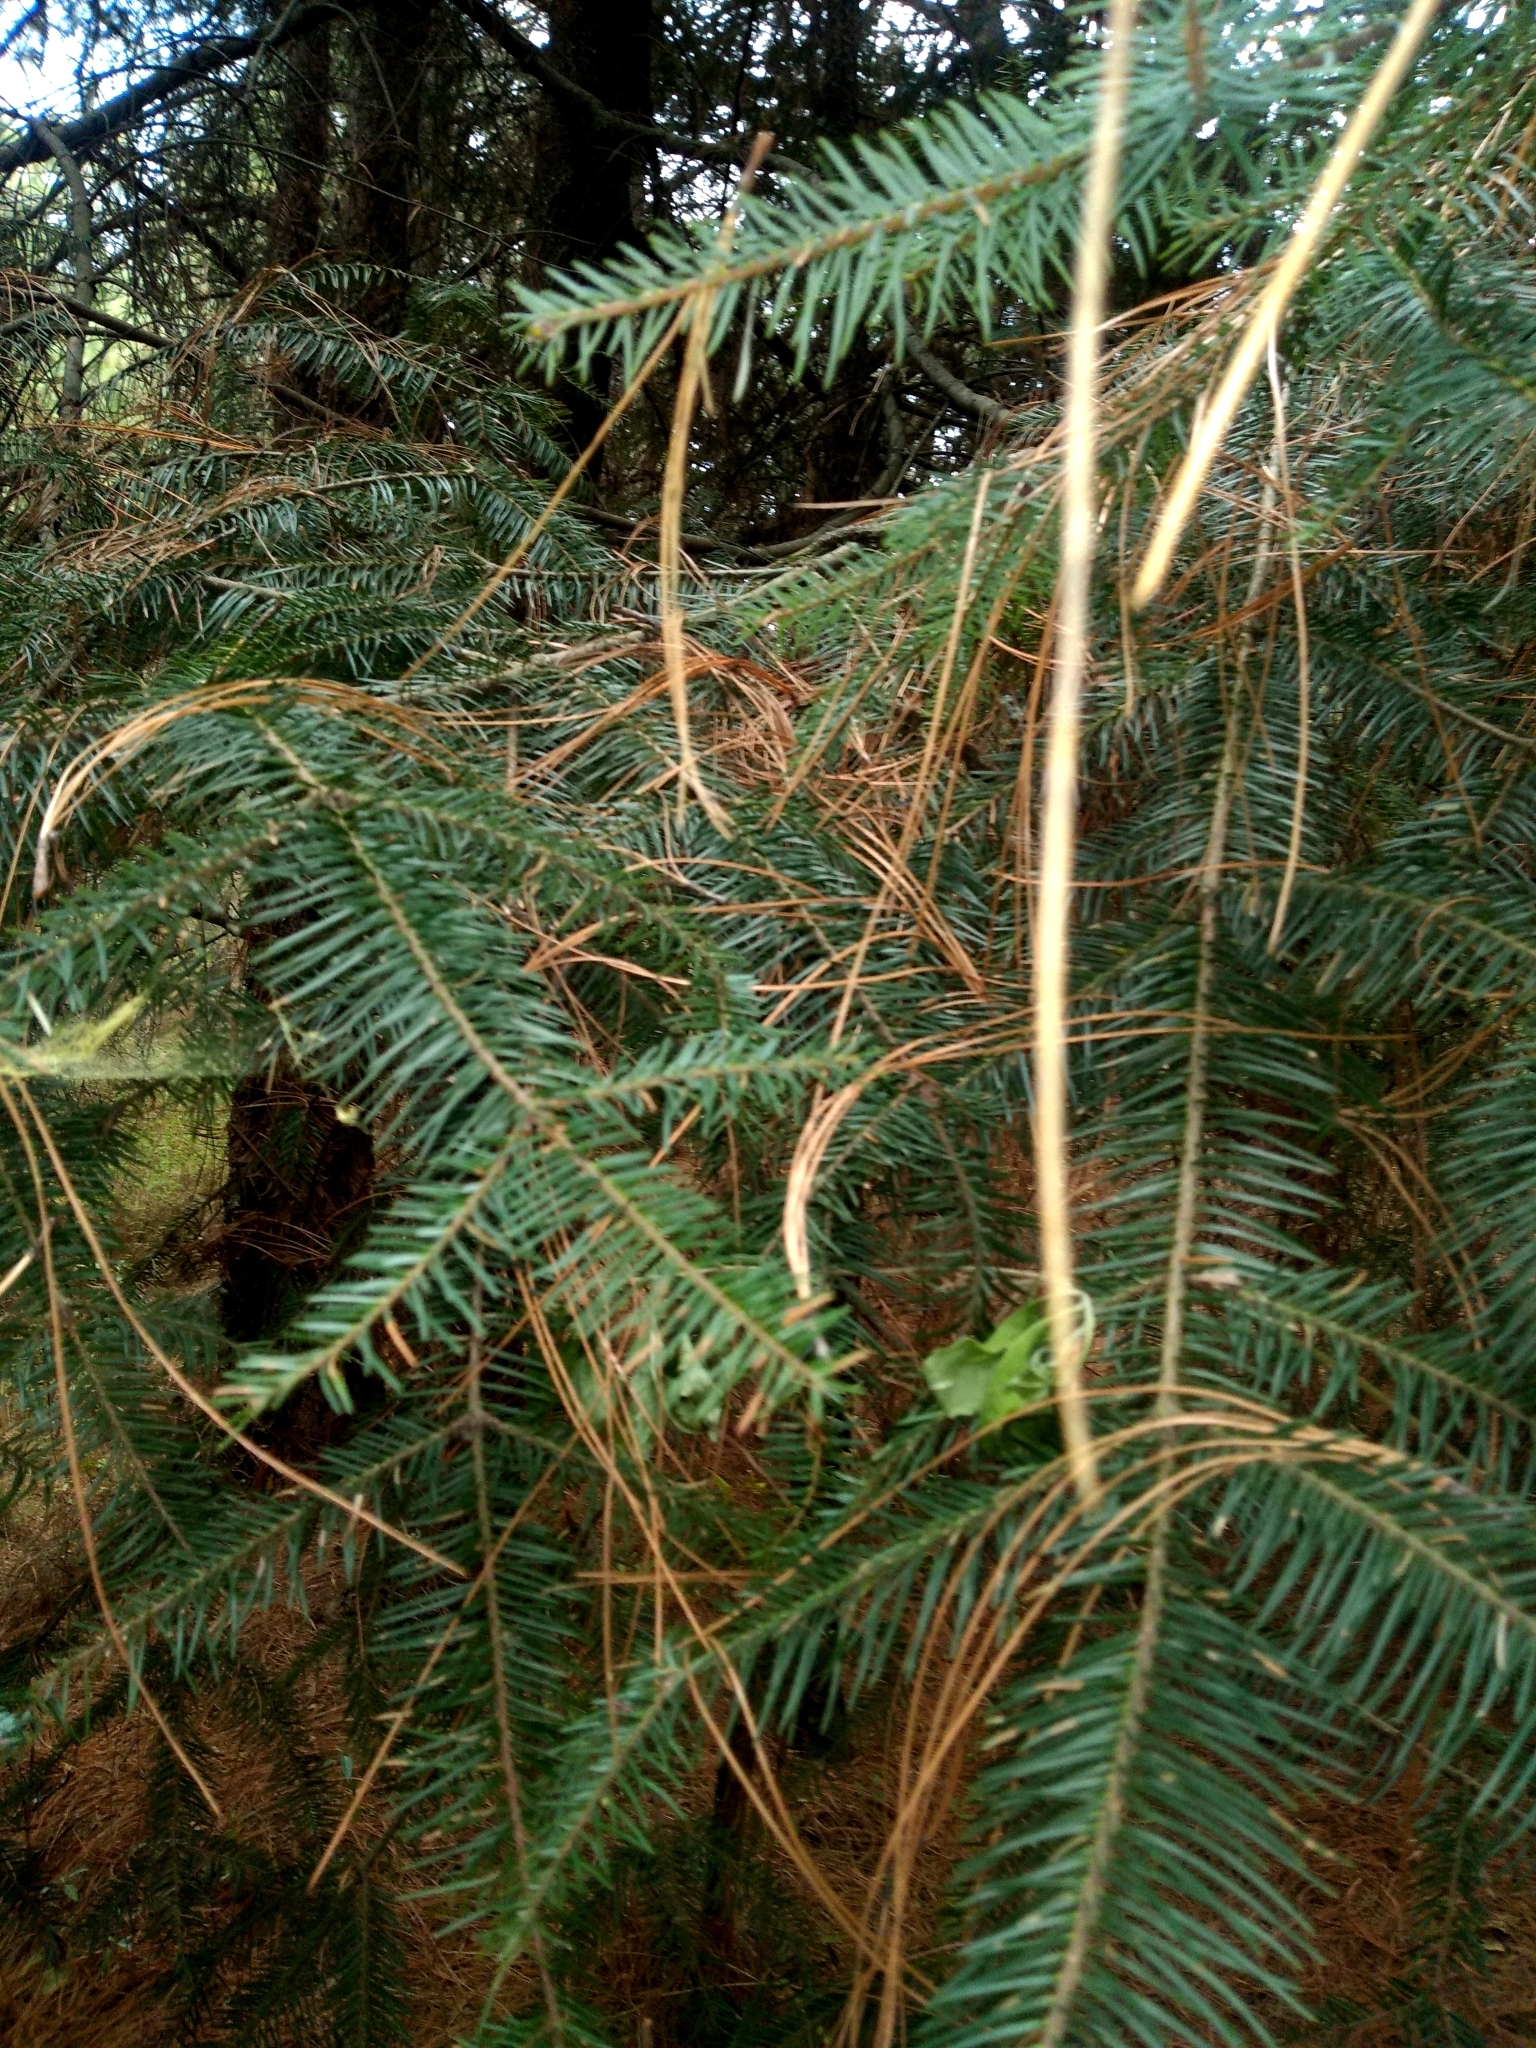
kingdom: Plantae
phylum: Tracheophyta
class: Pinopsida
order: Pinales
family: Pinaceae
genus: Abies
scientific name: Abies religiosa
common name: Sacred fir
